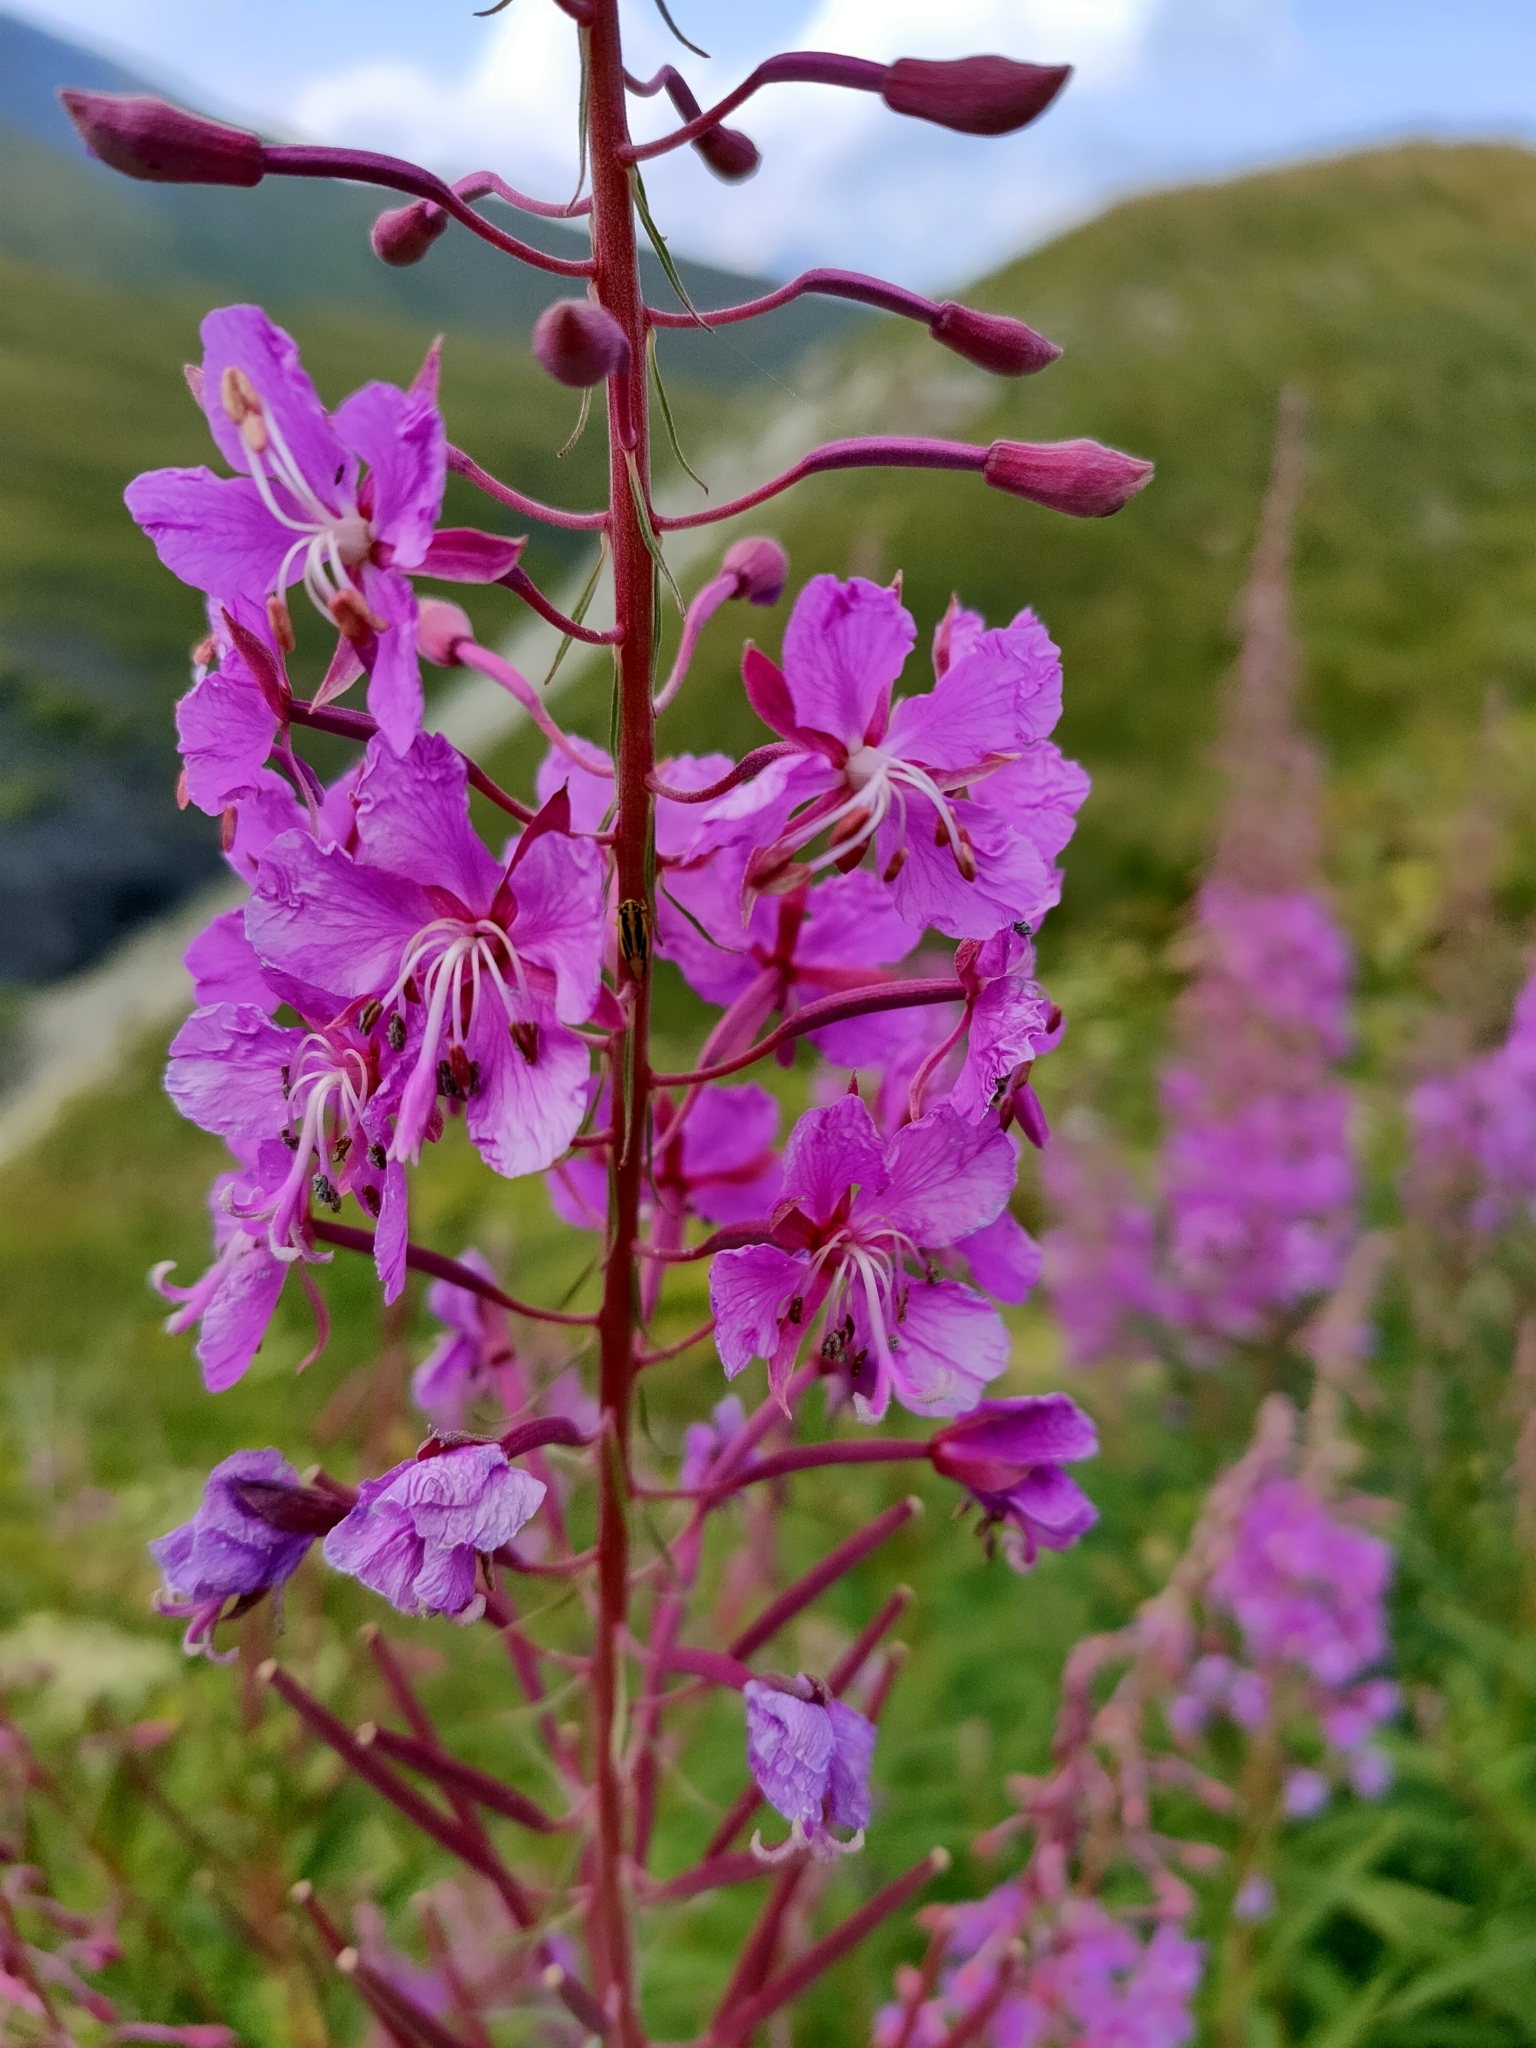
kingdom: Plantae
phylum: Tracheophyta
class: Magnoliopsida
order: Myrtales
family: Onagraceae
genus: Chamaenerion
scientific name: Chamaenerion angustifolium
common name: Fireweed
